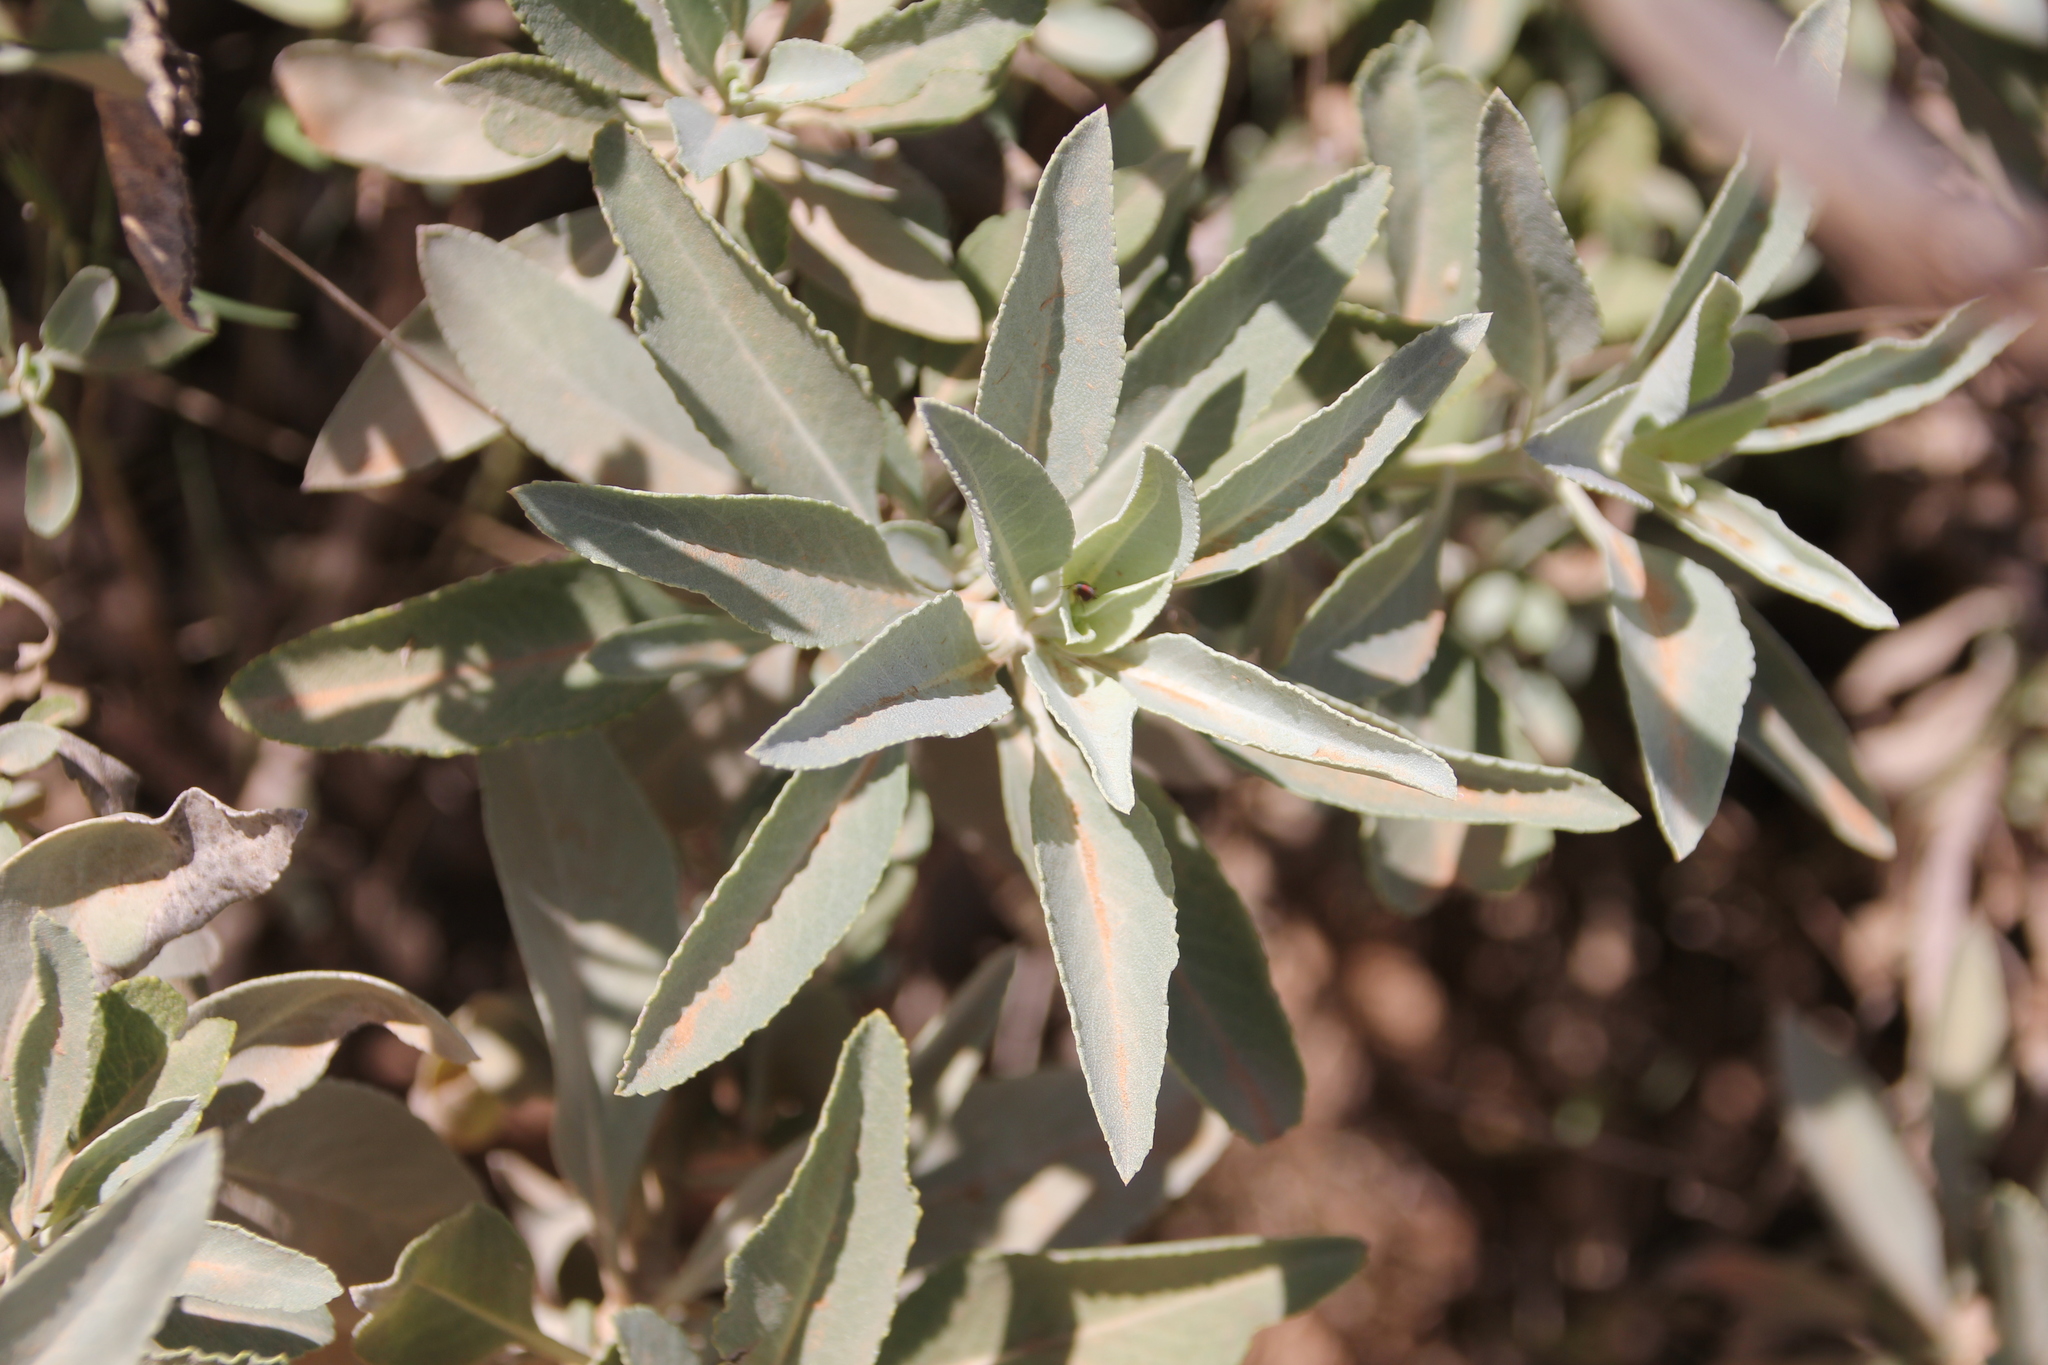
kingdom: Plantae
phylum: Tracheophyta
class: Magnoliopsida
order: Lamiales
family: Lamiaceae
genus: Salvia
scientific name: Salvia apiana
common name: White sage
